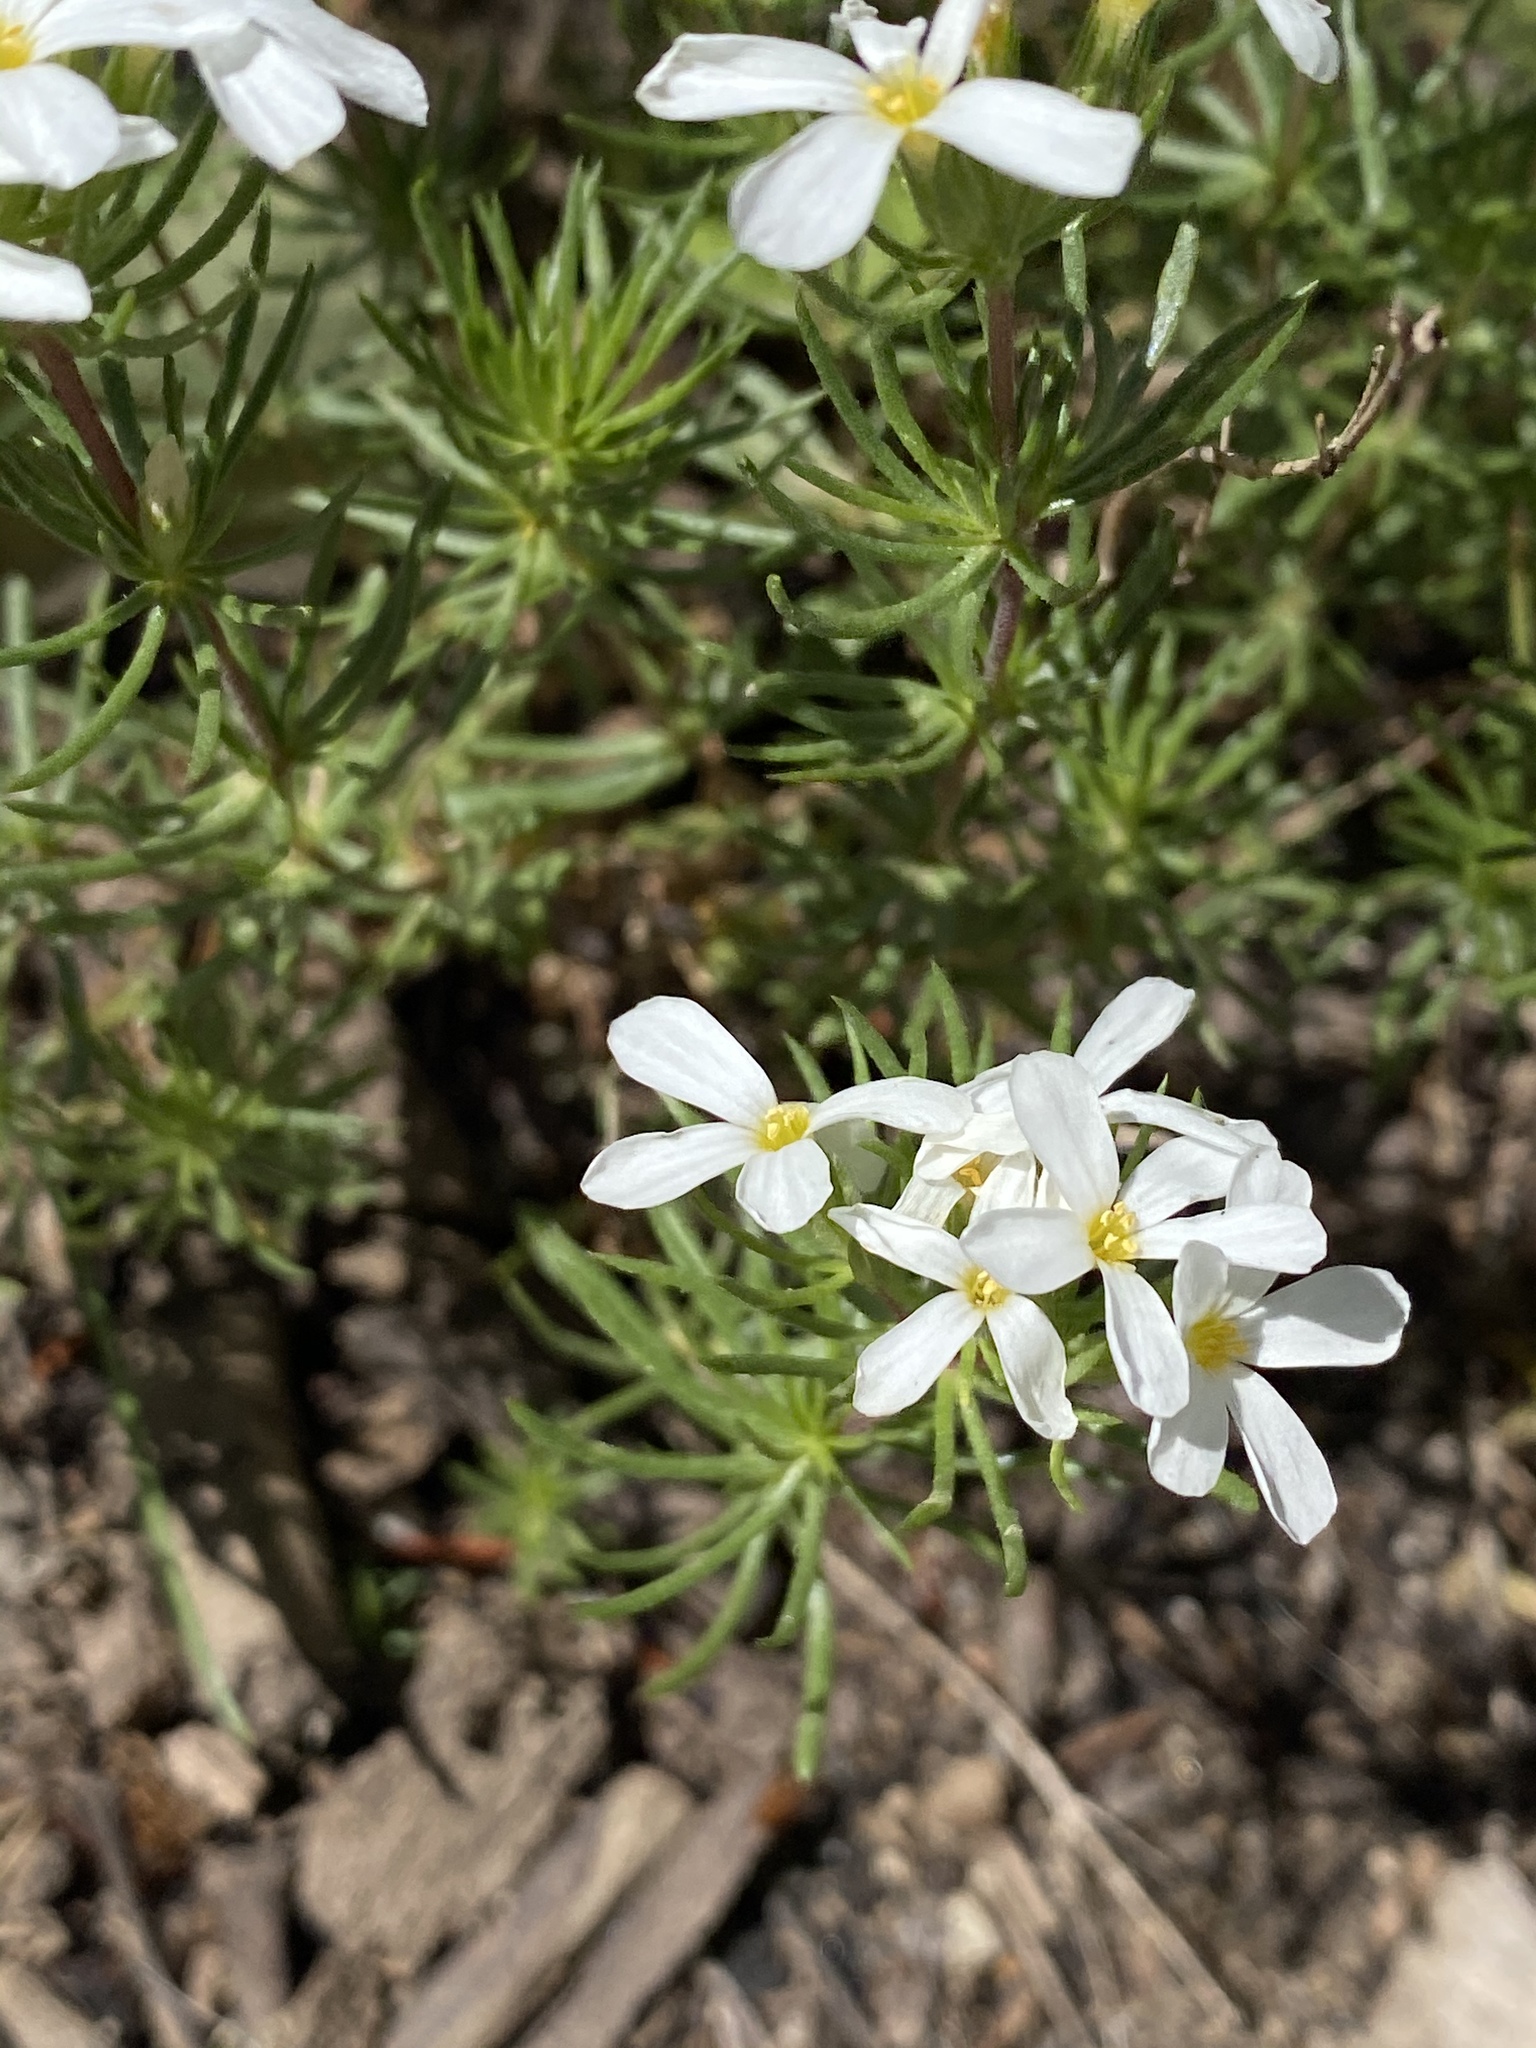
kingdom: Plantae
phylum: Tracheophyta
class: Magnoliopsida
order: Ericales
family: Polemoniaceae
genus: Leptosiphon
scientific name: Leptosiphon nuttallii
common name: Nuttall's linanthus
